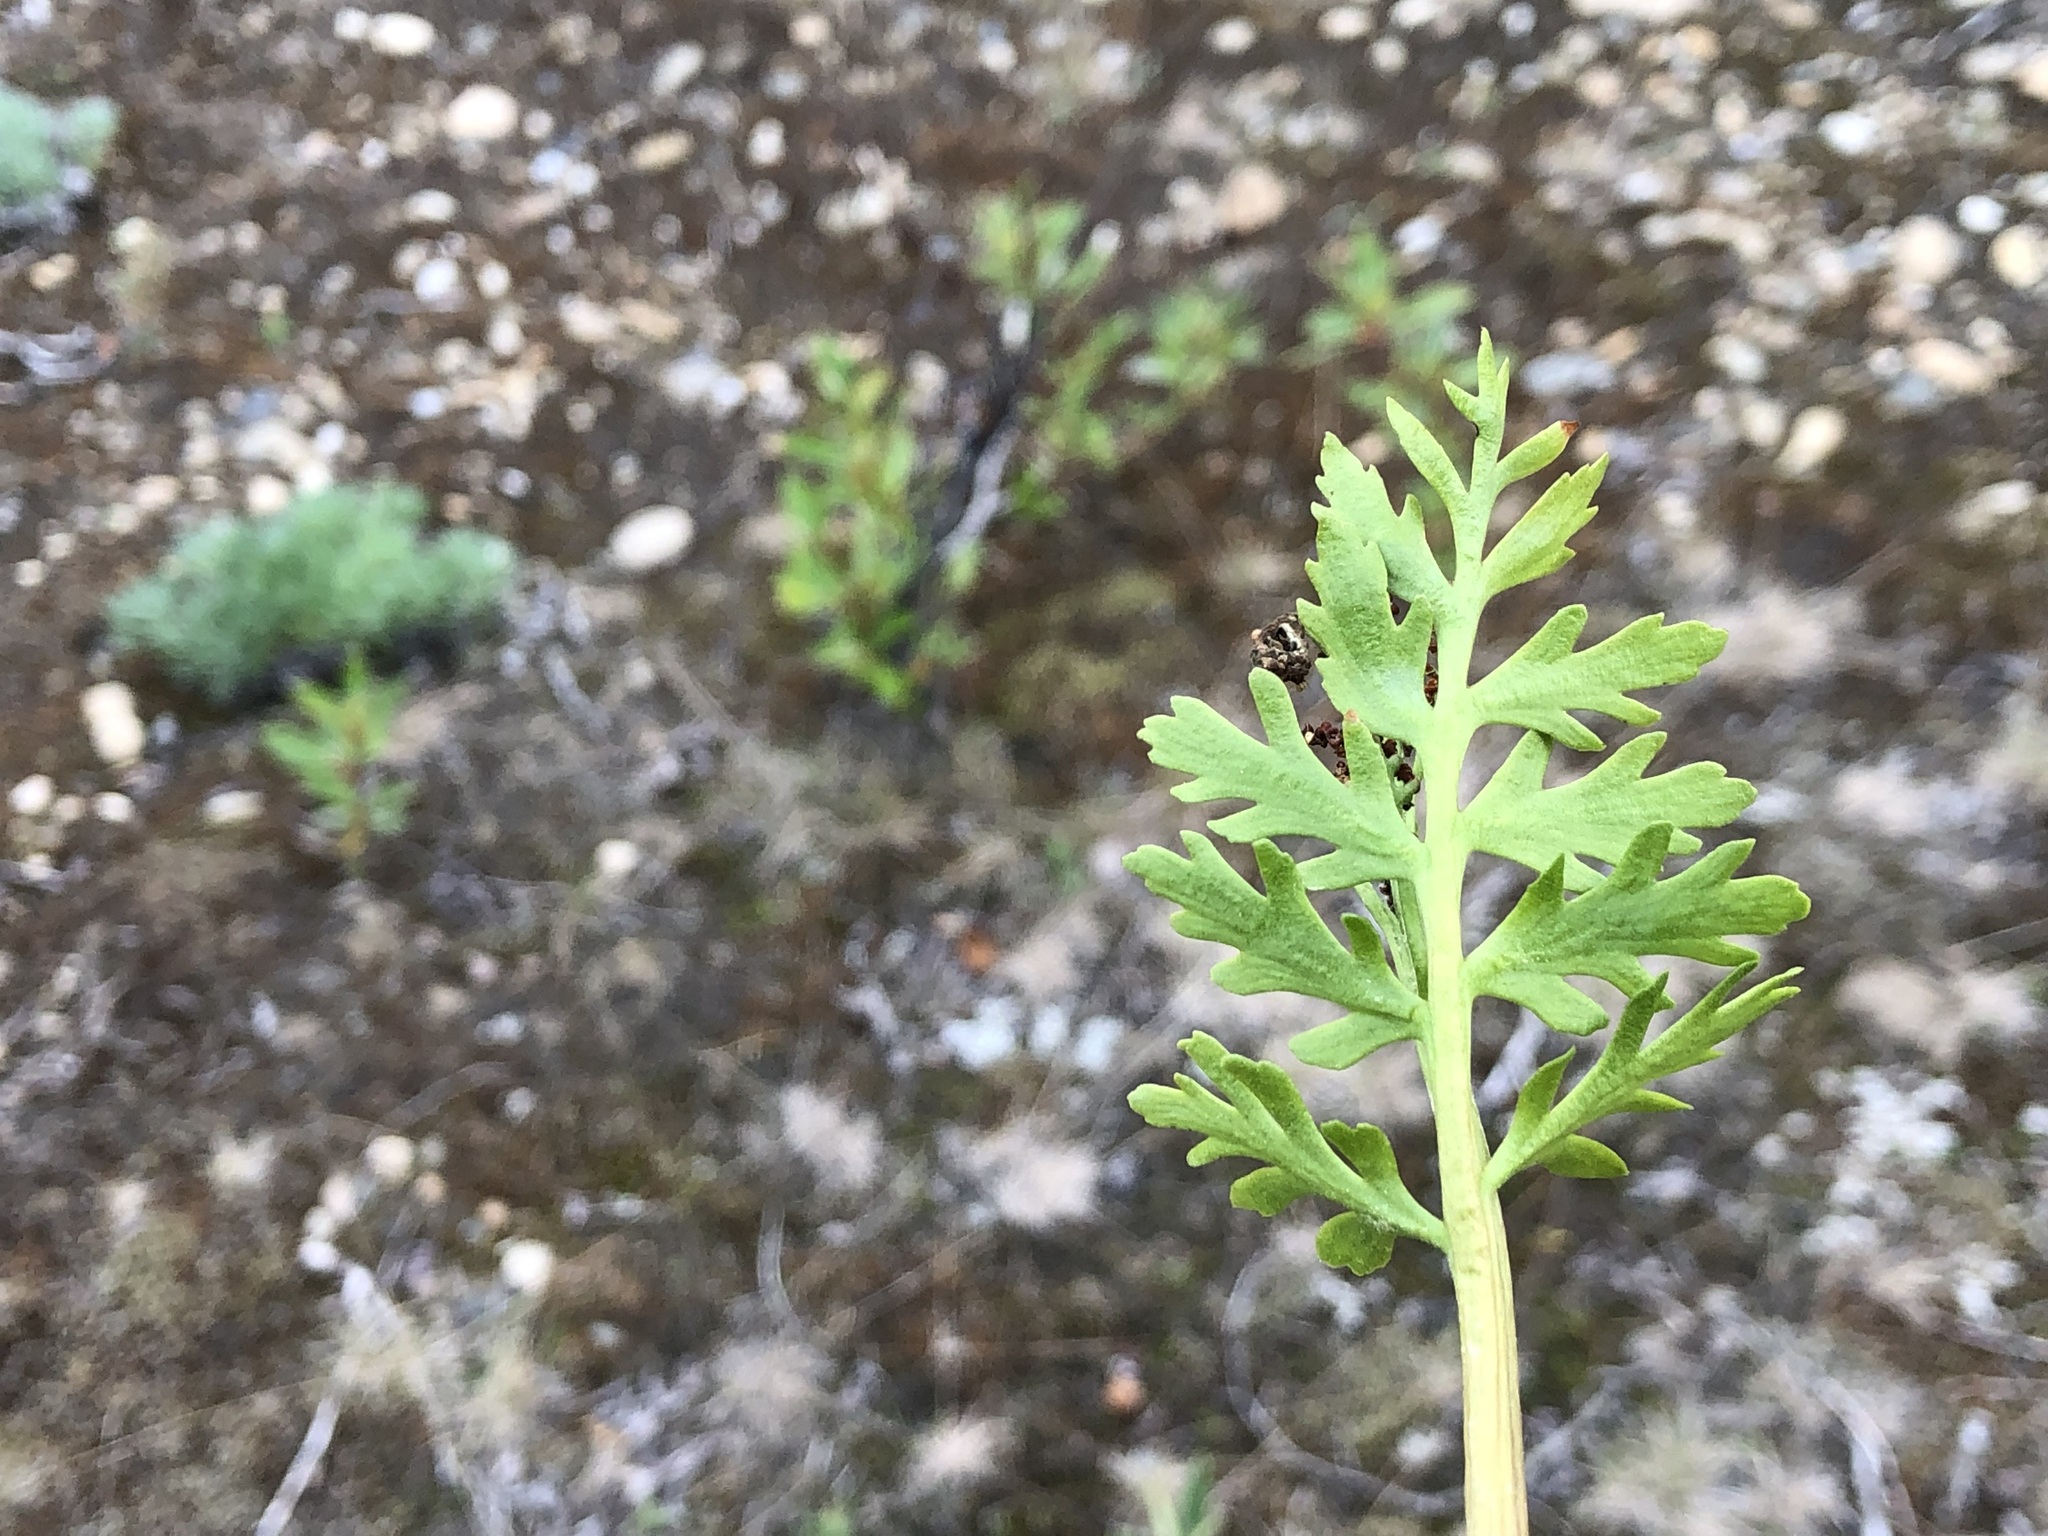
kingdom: Plantae
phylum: Tracheophyta
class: Polypodiopsida
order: Ophioglossales
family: Ophioglossaceae
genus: Botrychium
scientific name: Botrychium alaskense
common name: Alaska moonwort
